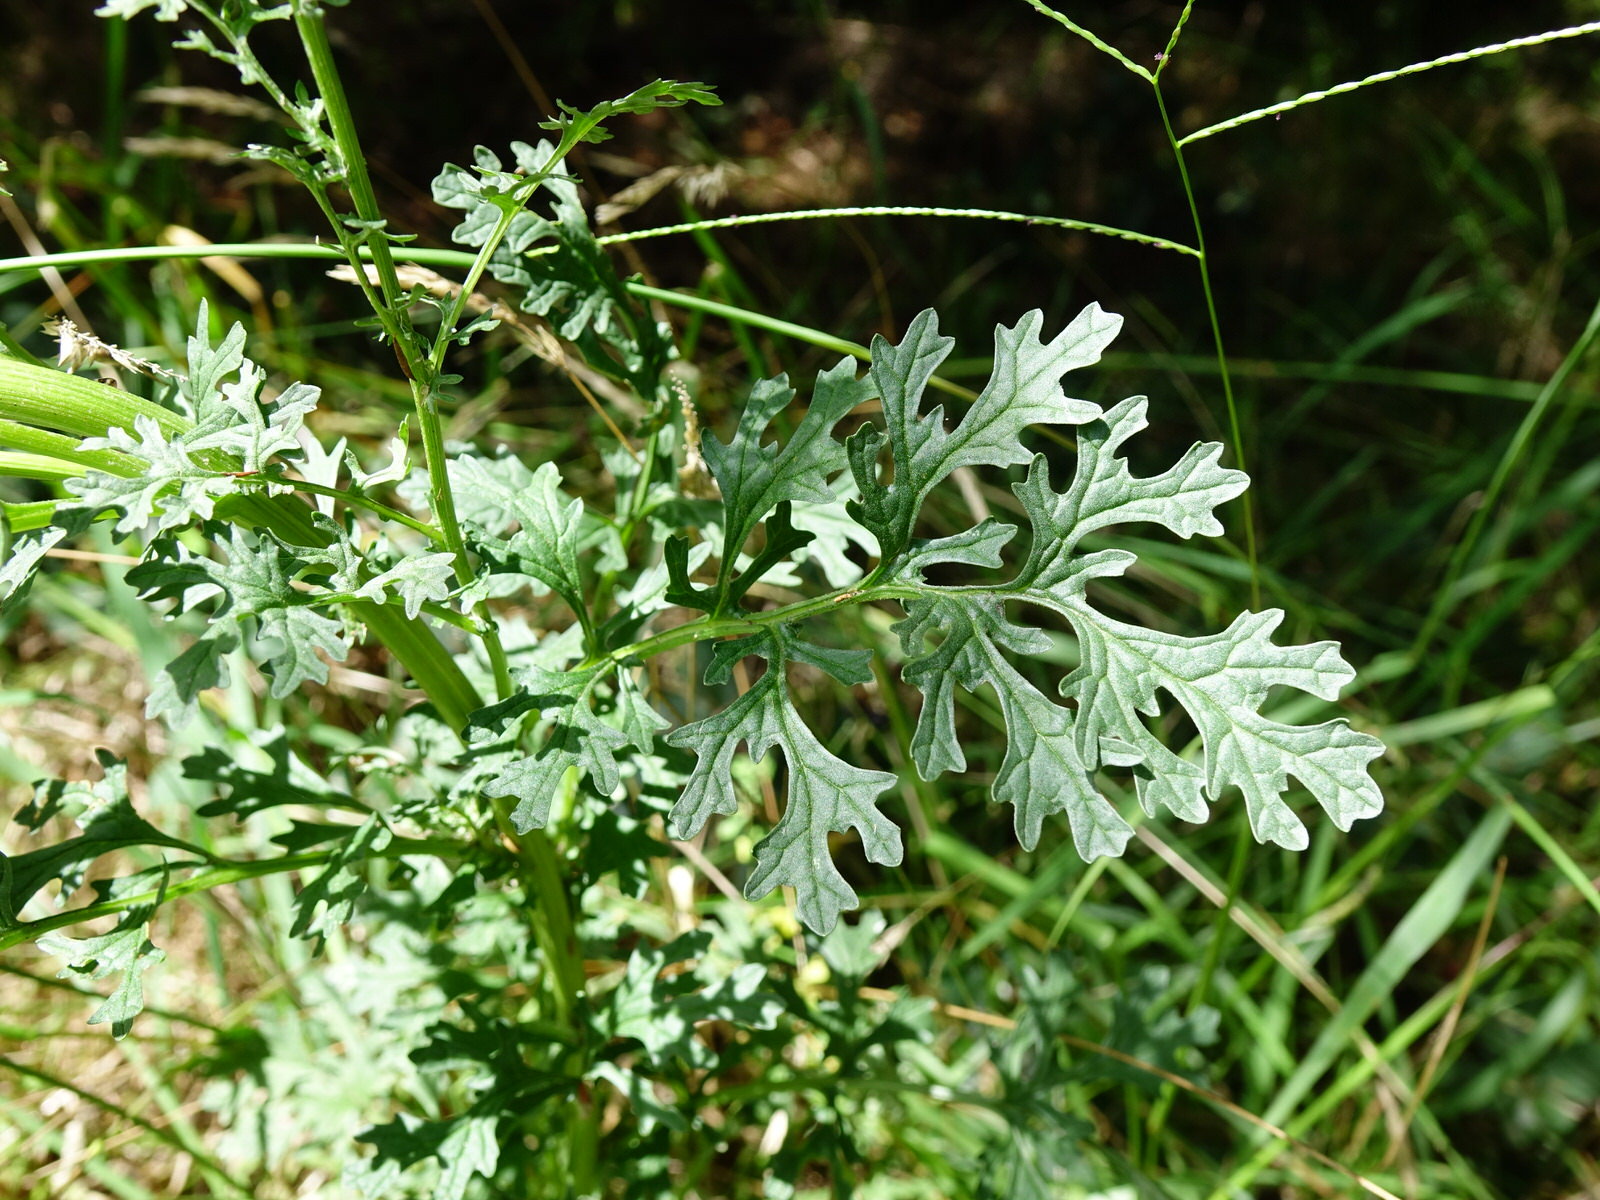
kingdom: Plantae
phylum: Tracheophyta
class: Magnoliopsida
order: Asterales
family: Asteraceae
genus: Jacobaea
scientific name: Jacobaea vulgaris
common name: Stinking willie
